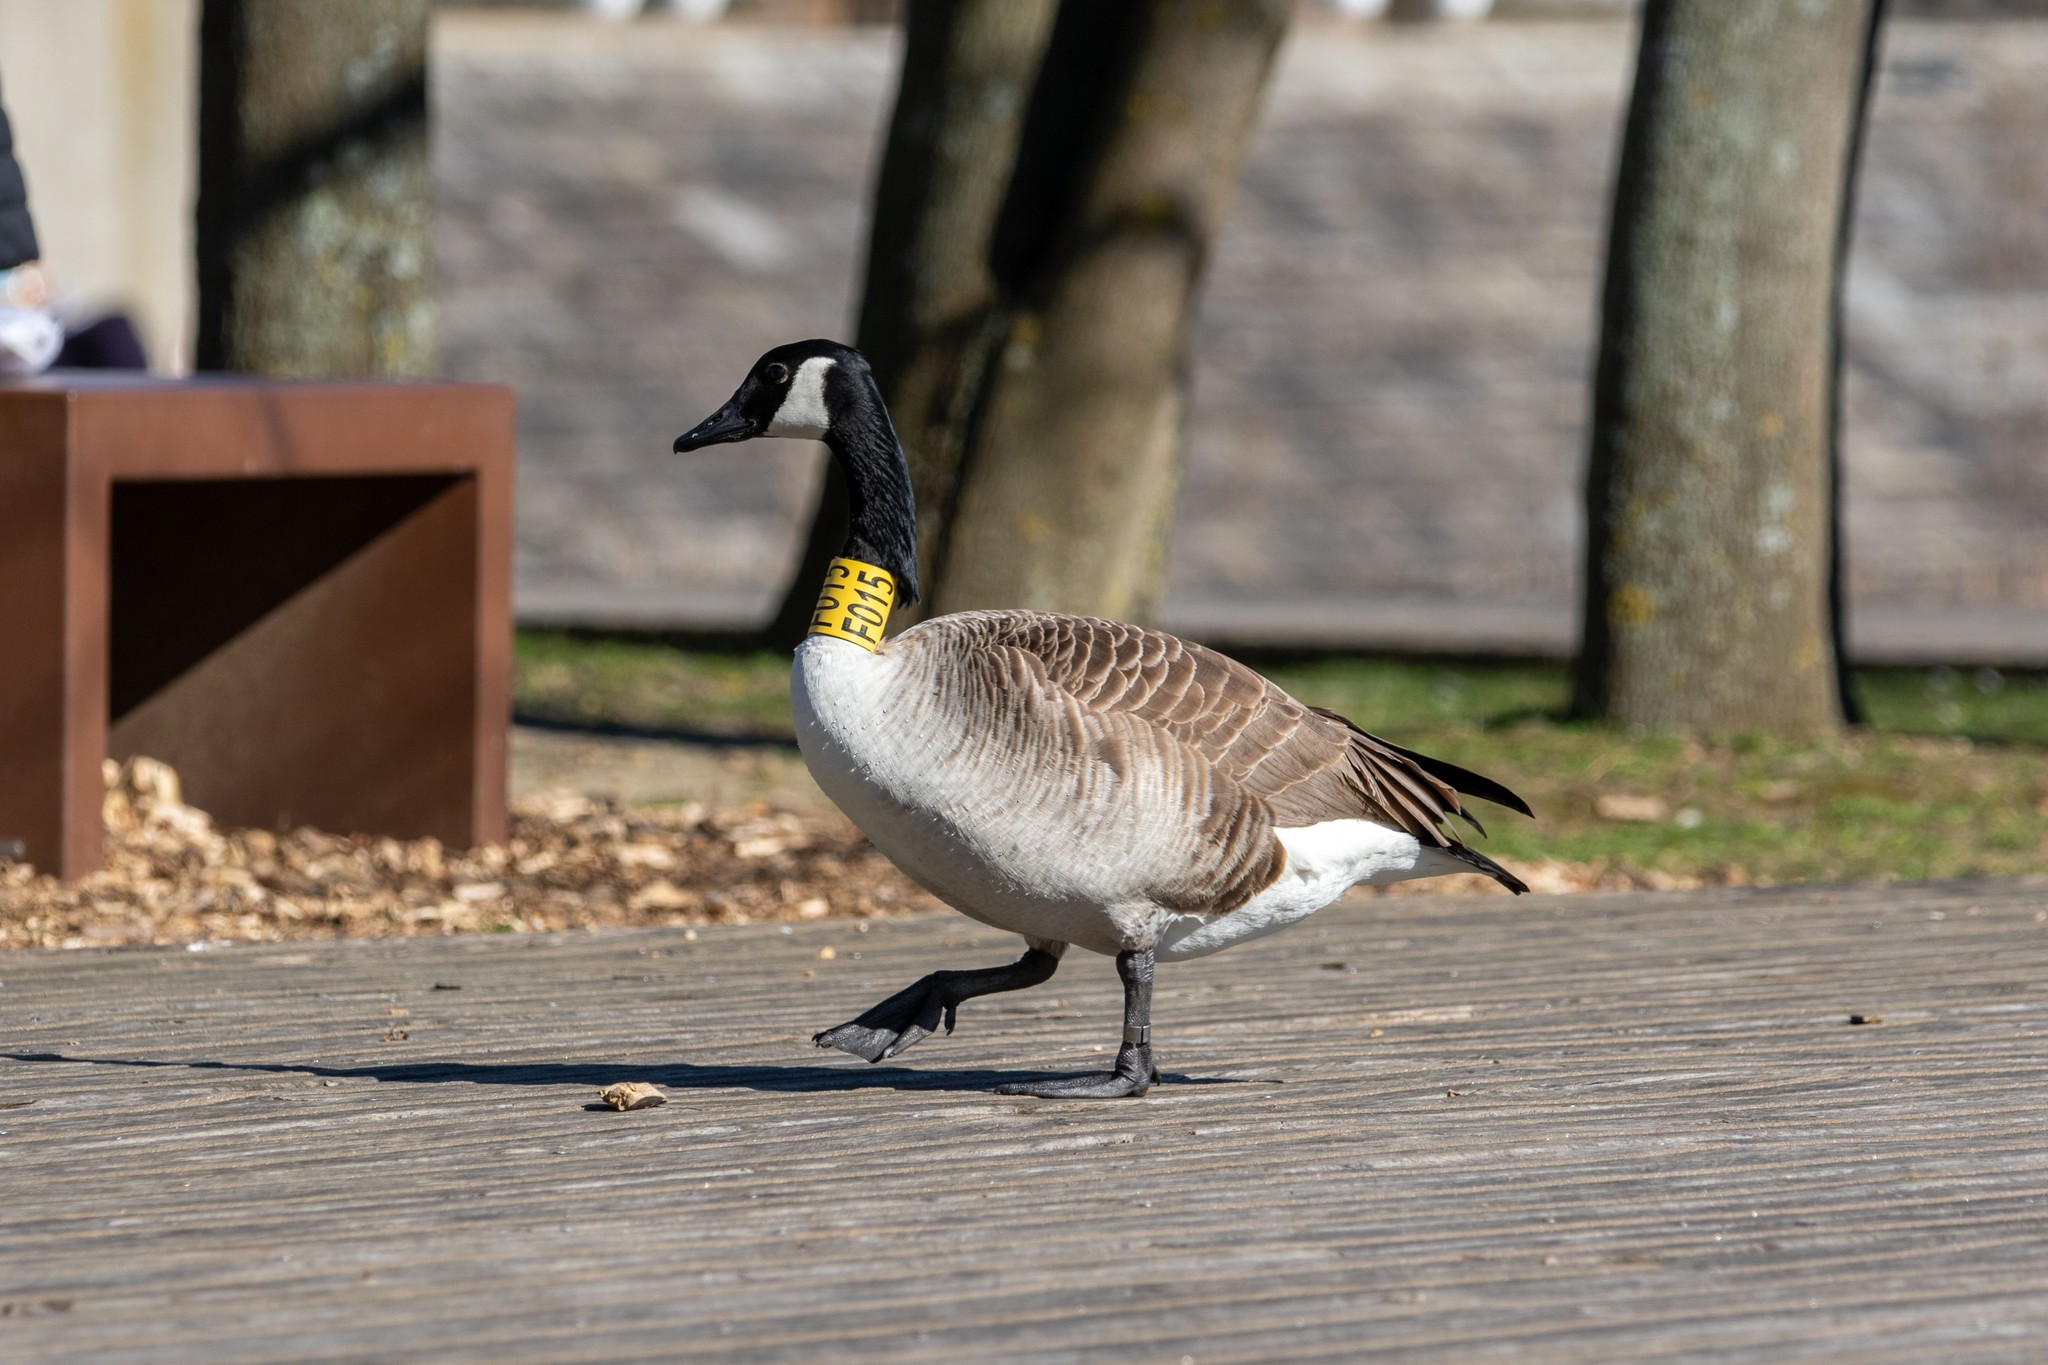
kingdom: Animalia
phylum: Chordata
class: Aves
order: Anseriformes
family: Anatidae
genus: Branta
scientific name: Branta canadensis
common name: Canada goose
